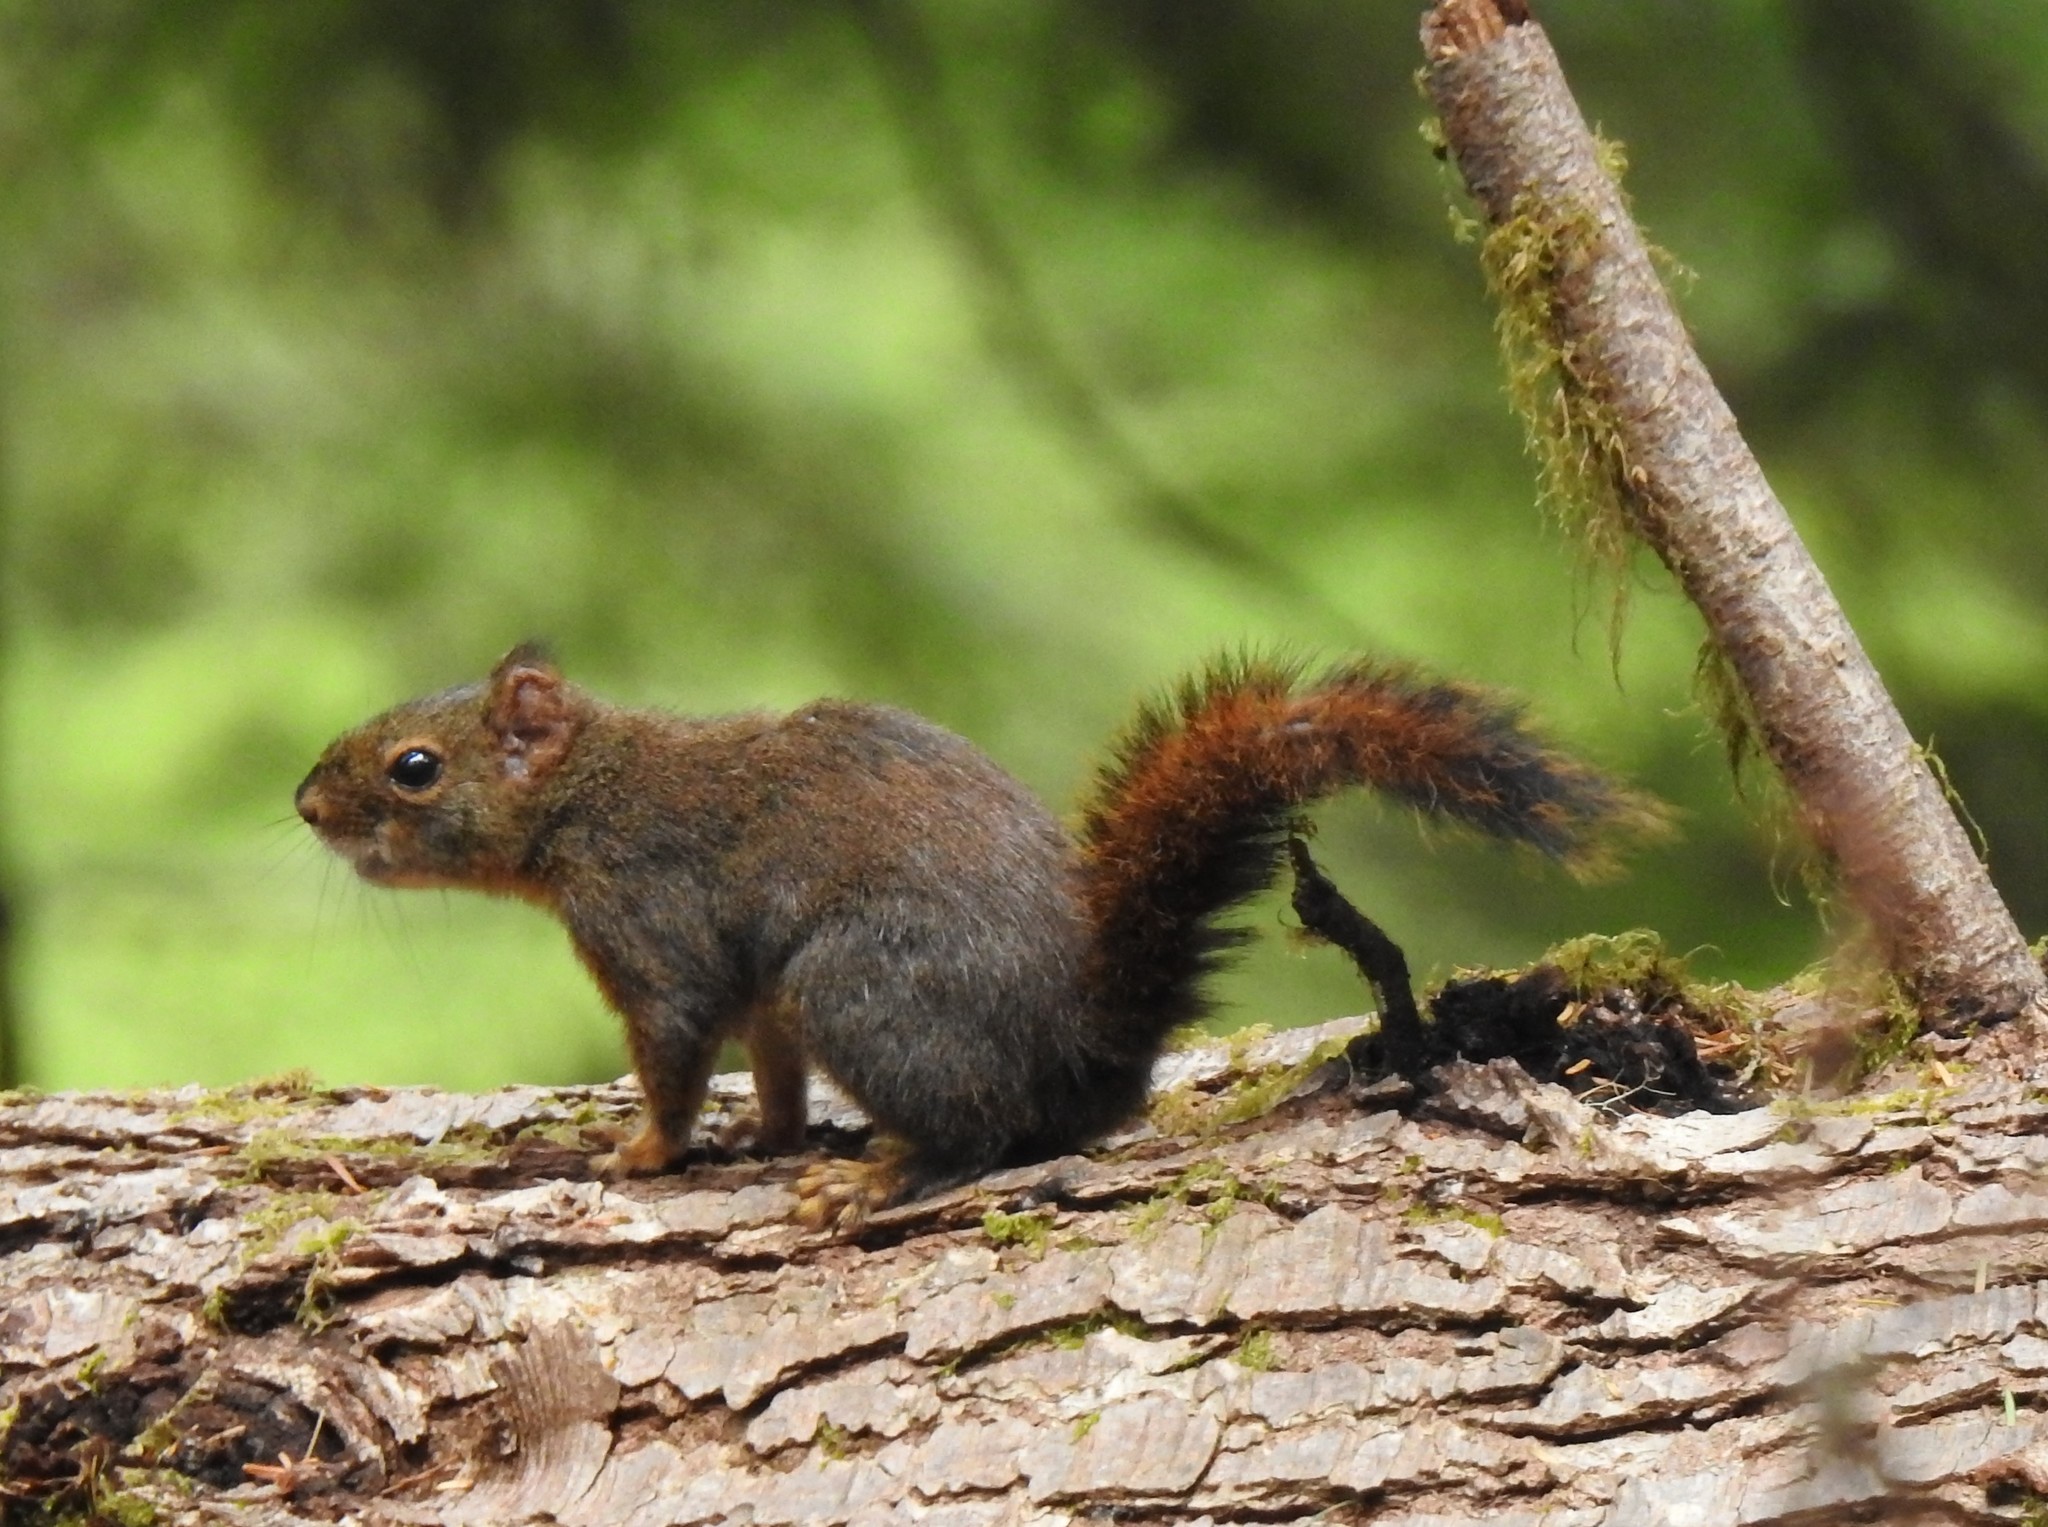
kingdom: Animalia
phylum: Chordata
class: Mammalia
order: Rodentia
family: Sciuridae
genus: Tamiasciurus
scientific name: Tamiasciurus douglasii
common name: Douglas's squirrel
